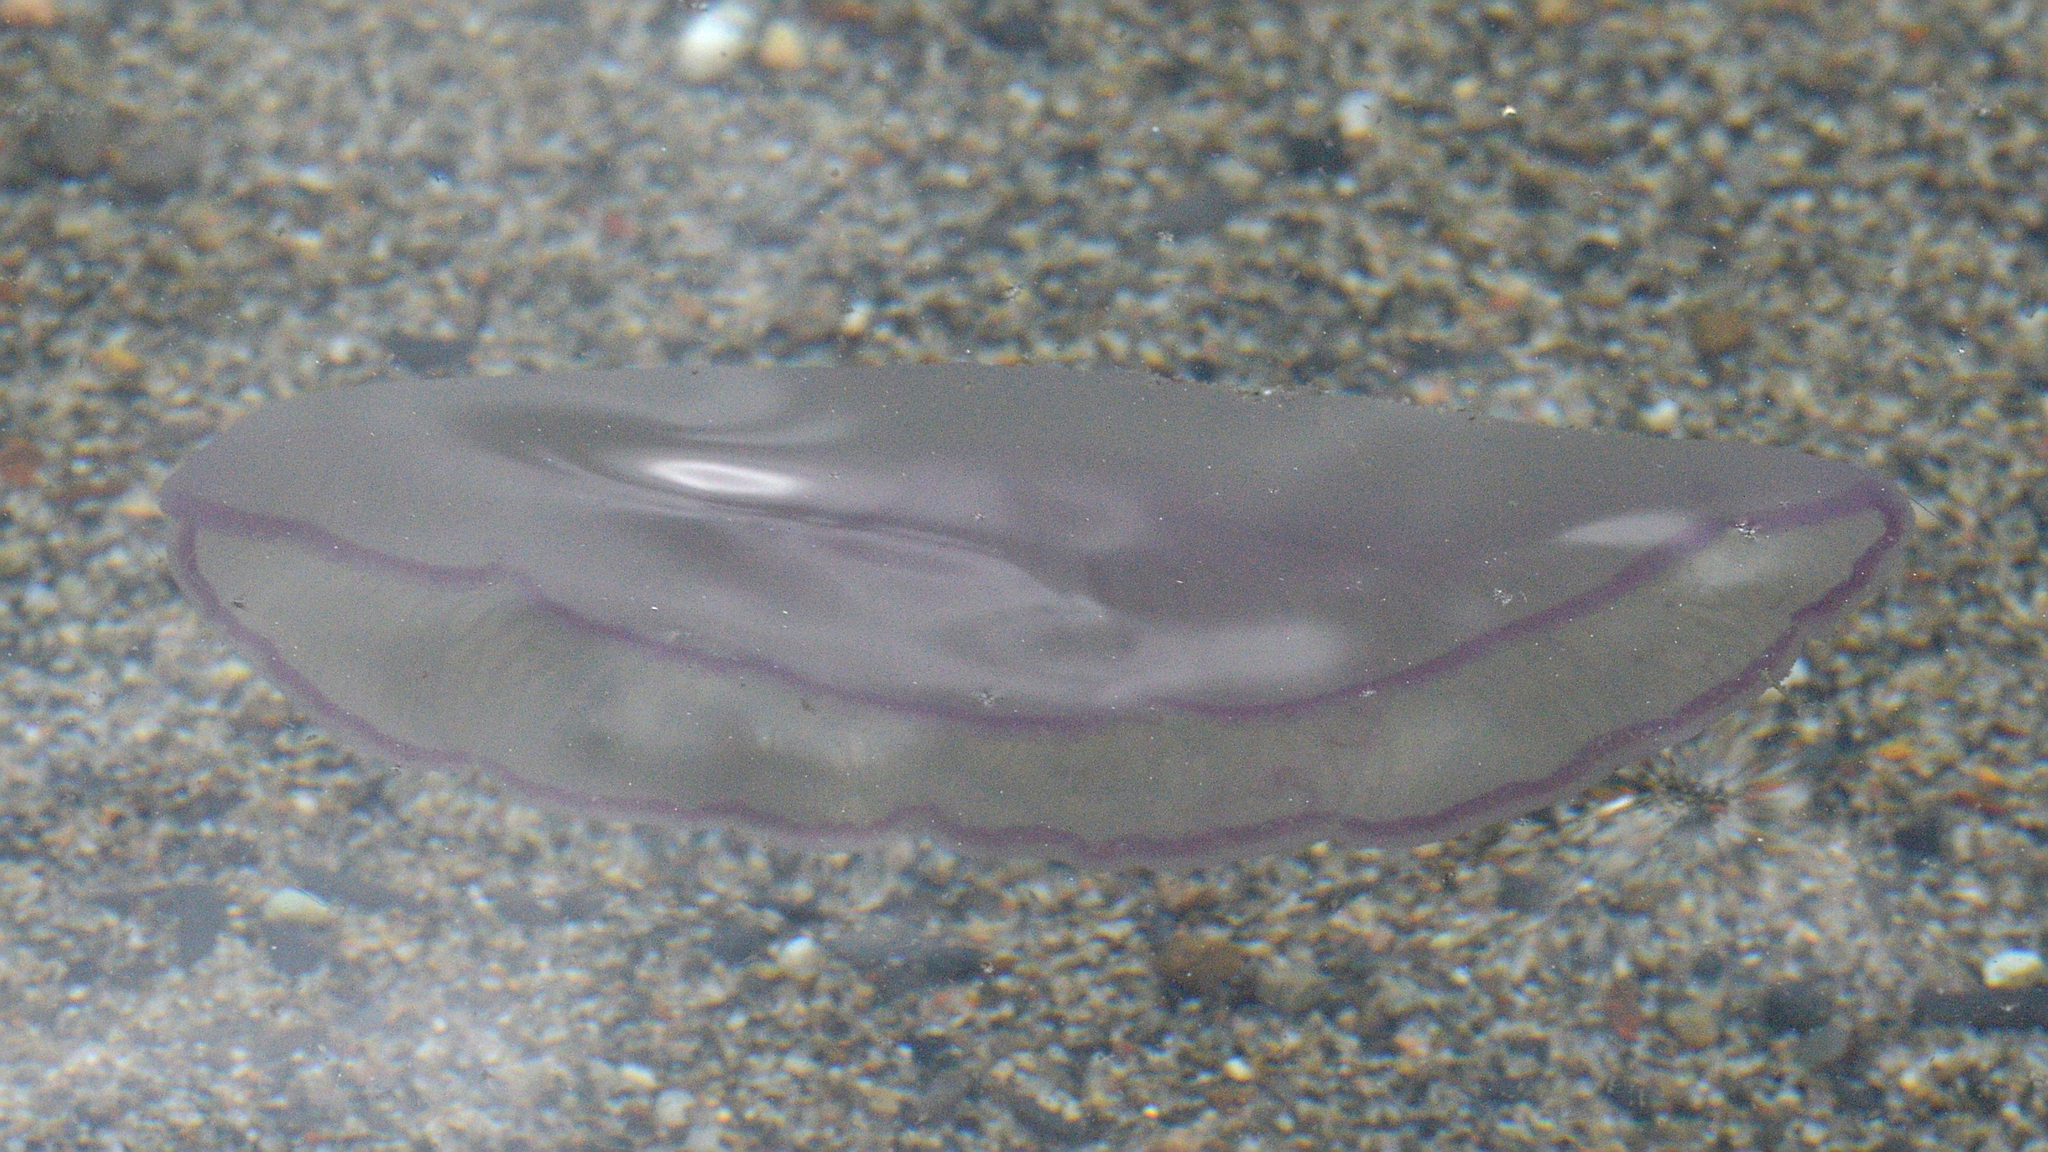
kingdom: Animalia
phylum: Cnidaria
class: Scyphozoa
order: Semaeostomeae
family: Ulmaridae
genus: Aurelia
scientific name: Aurelia aurita
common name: Moon jellyfish
